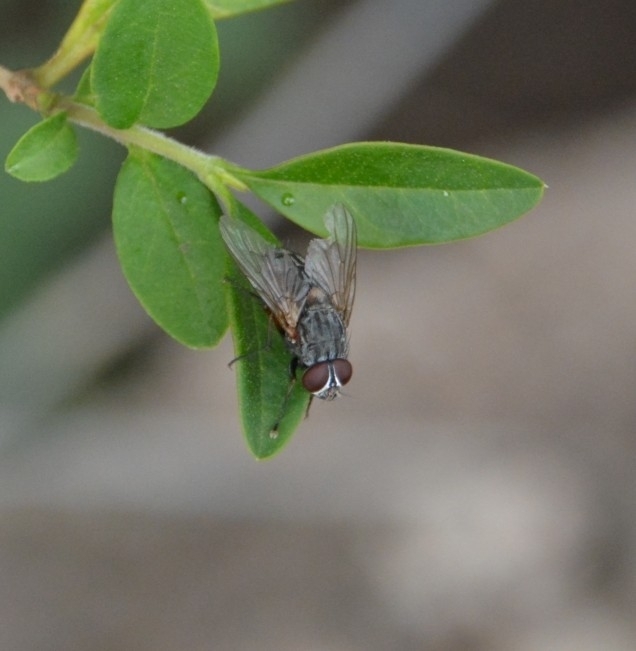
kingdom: Animalia
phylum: Arthropoda
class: Insecta
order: Diptera
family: Muscidae
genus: Muscina
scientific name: Muscina stabulans
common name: False stable fly
